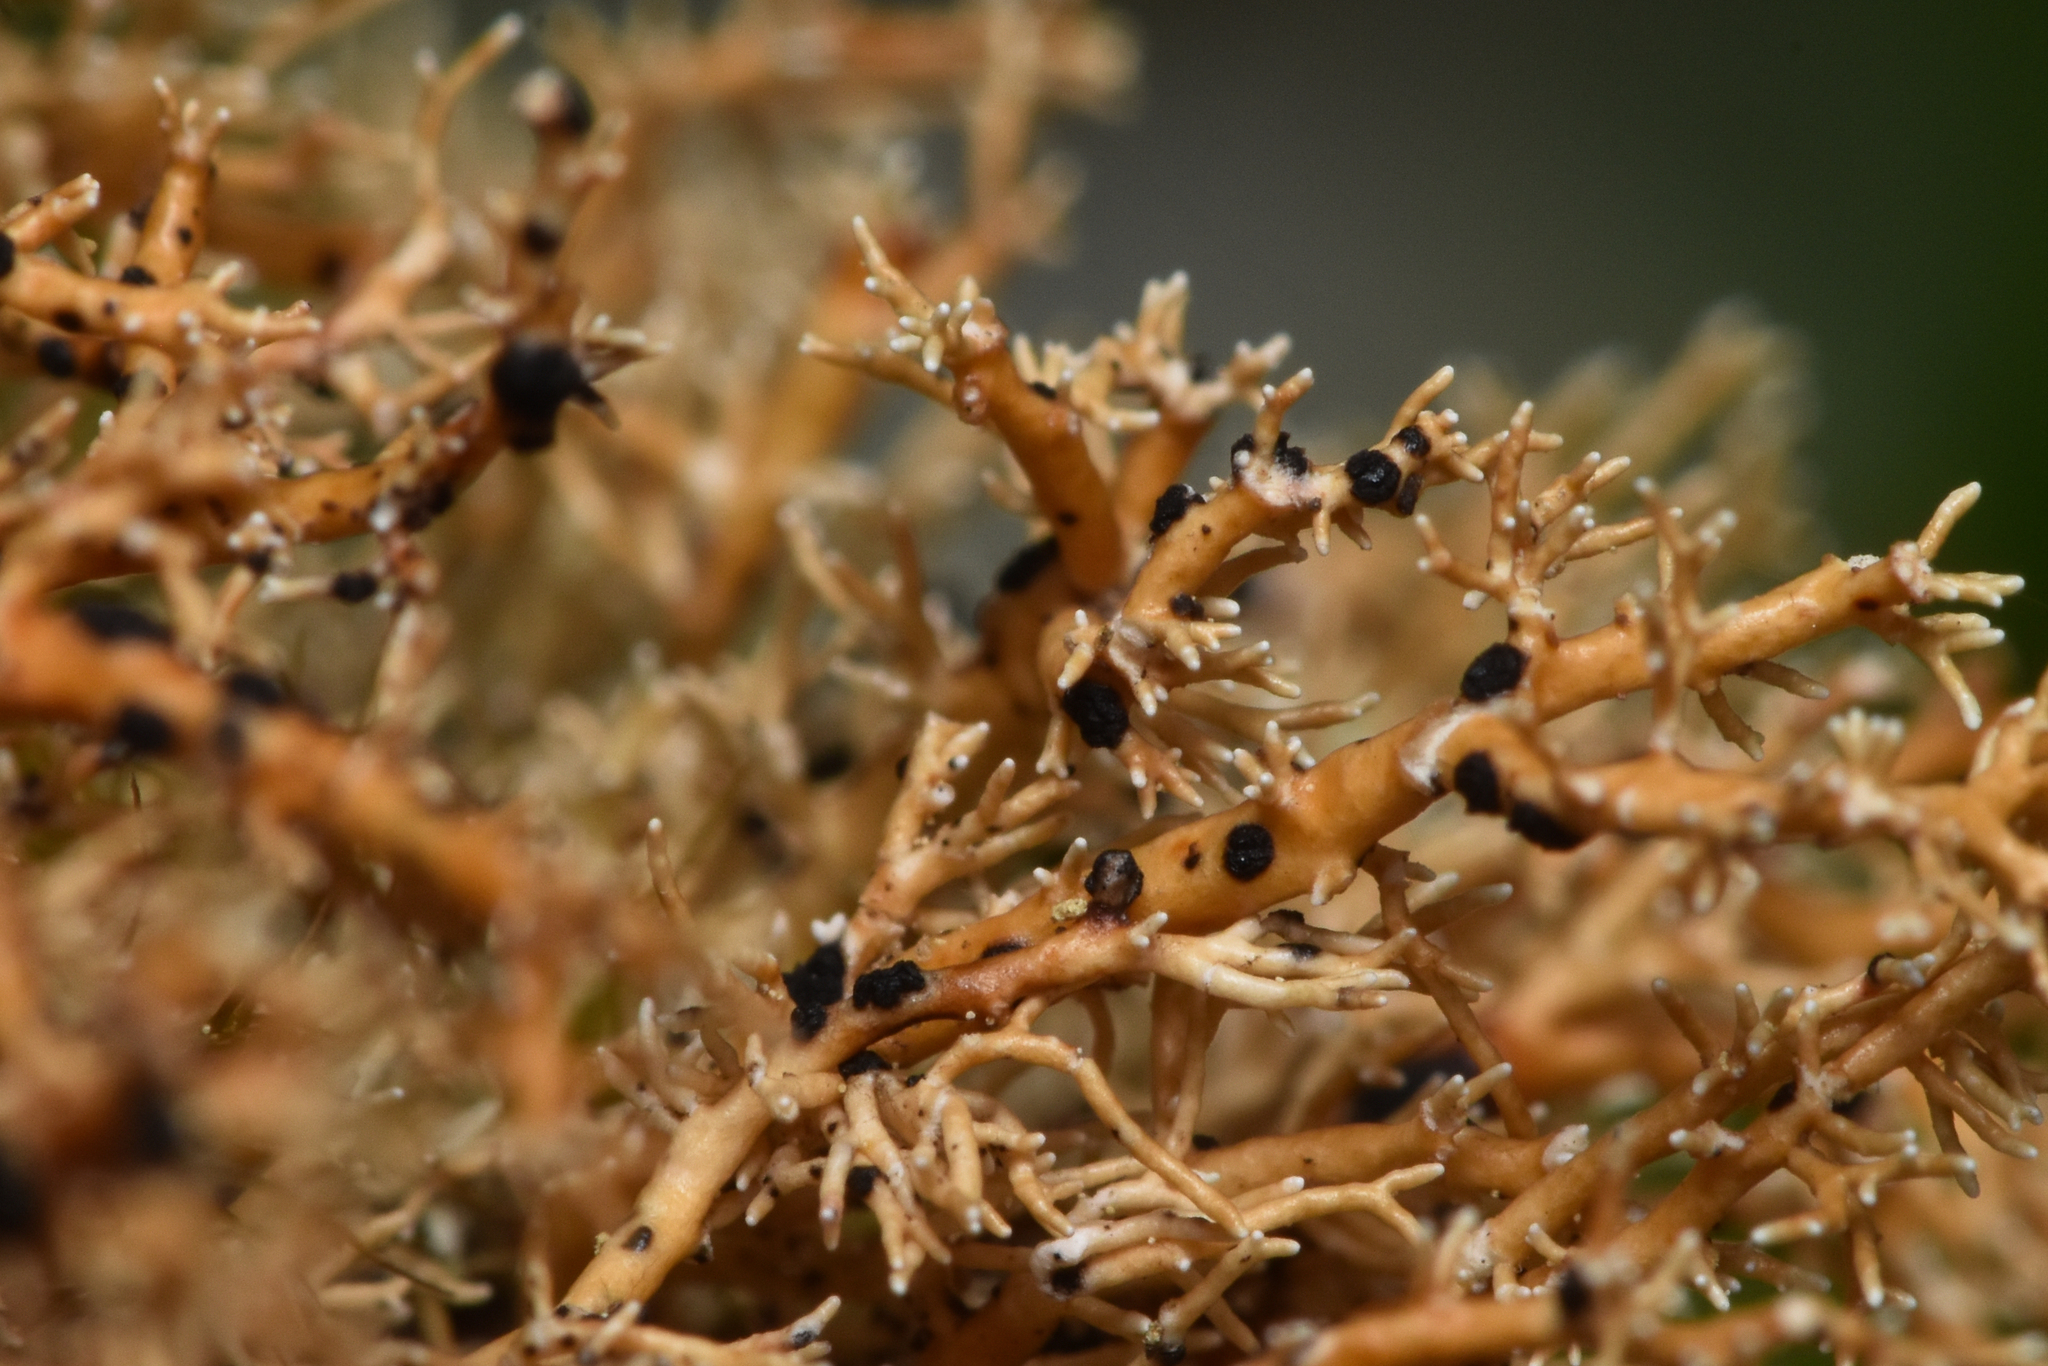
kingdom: Fungi
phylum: Ascomycota
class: Arthoniomycetes
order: Arthoniales
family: Opegraphaceae
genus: Opegrapha
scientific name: Opegrapha sphaerophoricola
